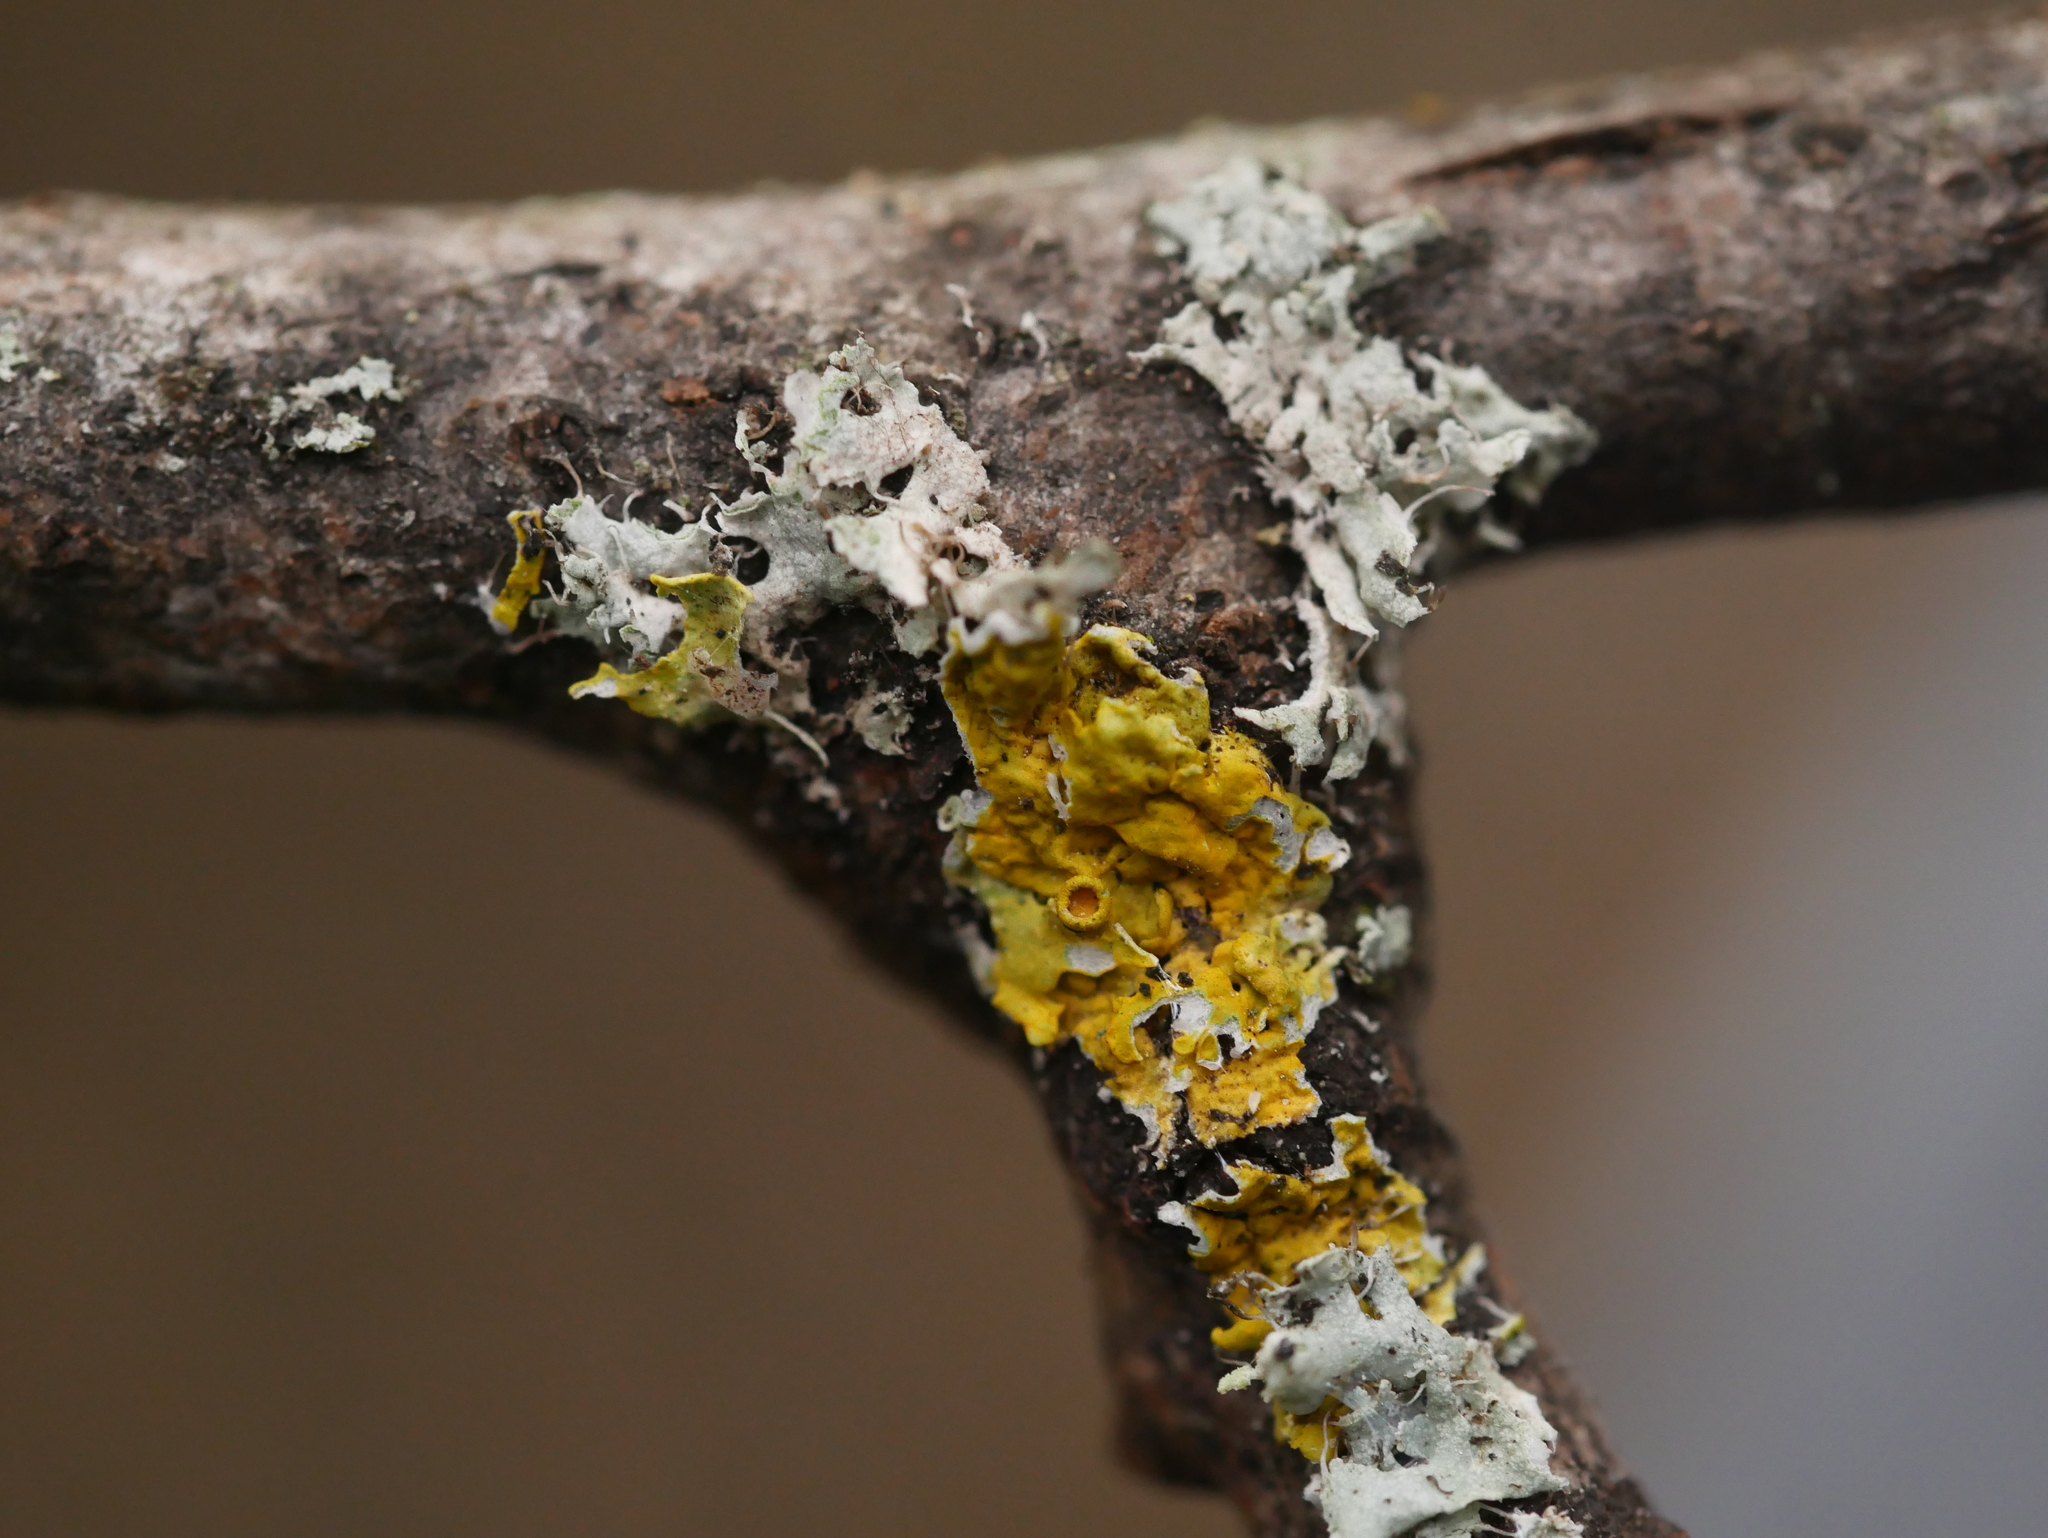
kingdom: Fungi
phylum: Ascomycota
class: Lecanoromycetes
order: Teloschistales
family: Teloschistaceae
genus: Xanthoria
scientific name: Xanthoria parietina
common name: Common orange lichen
